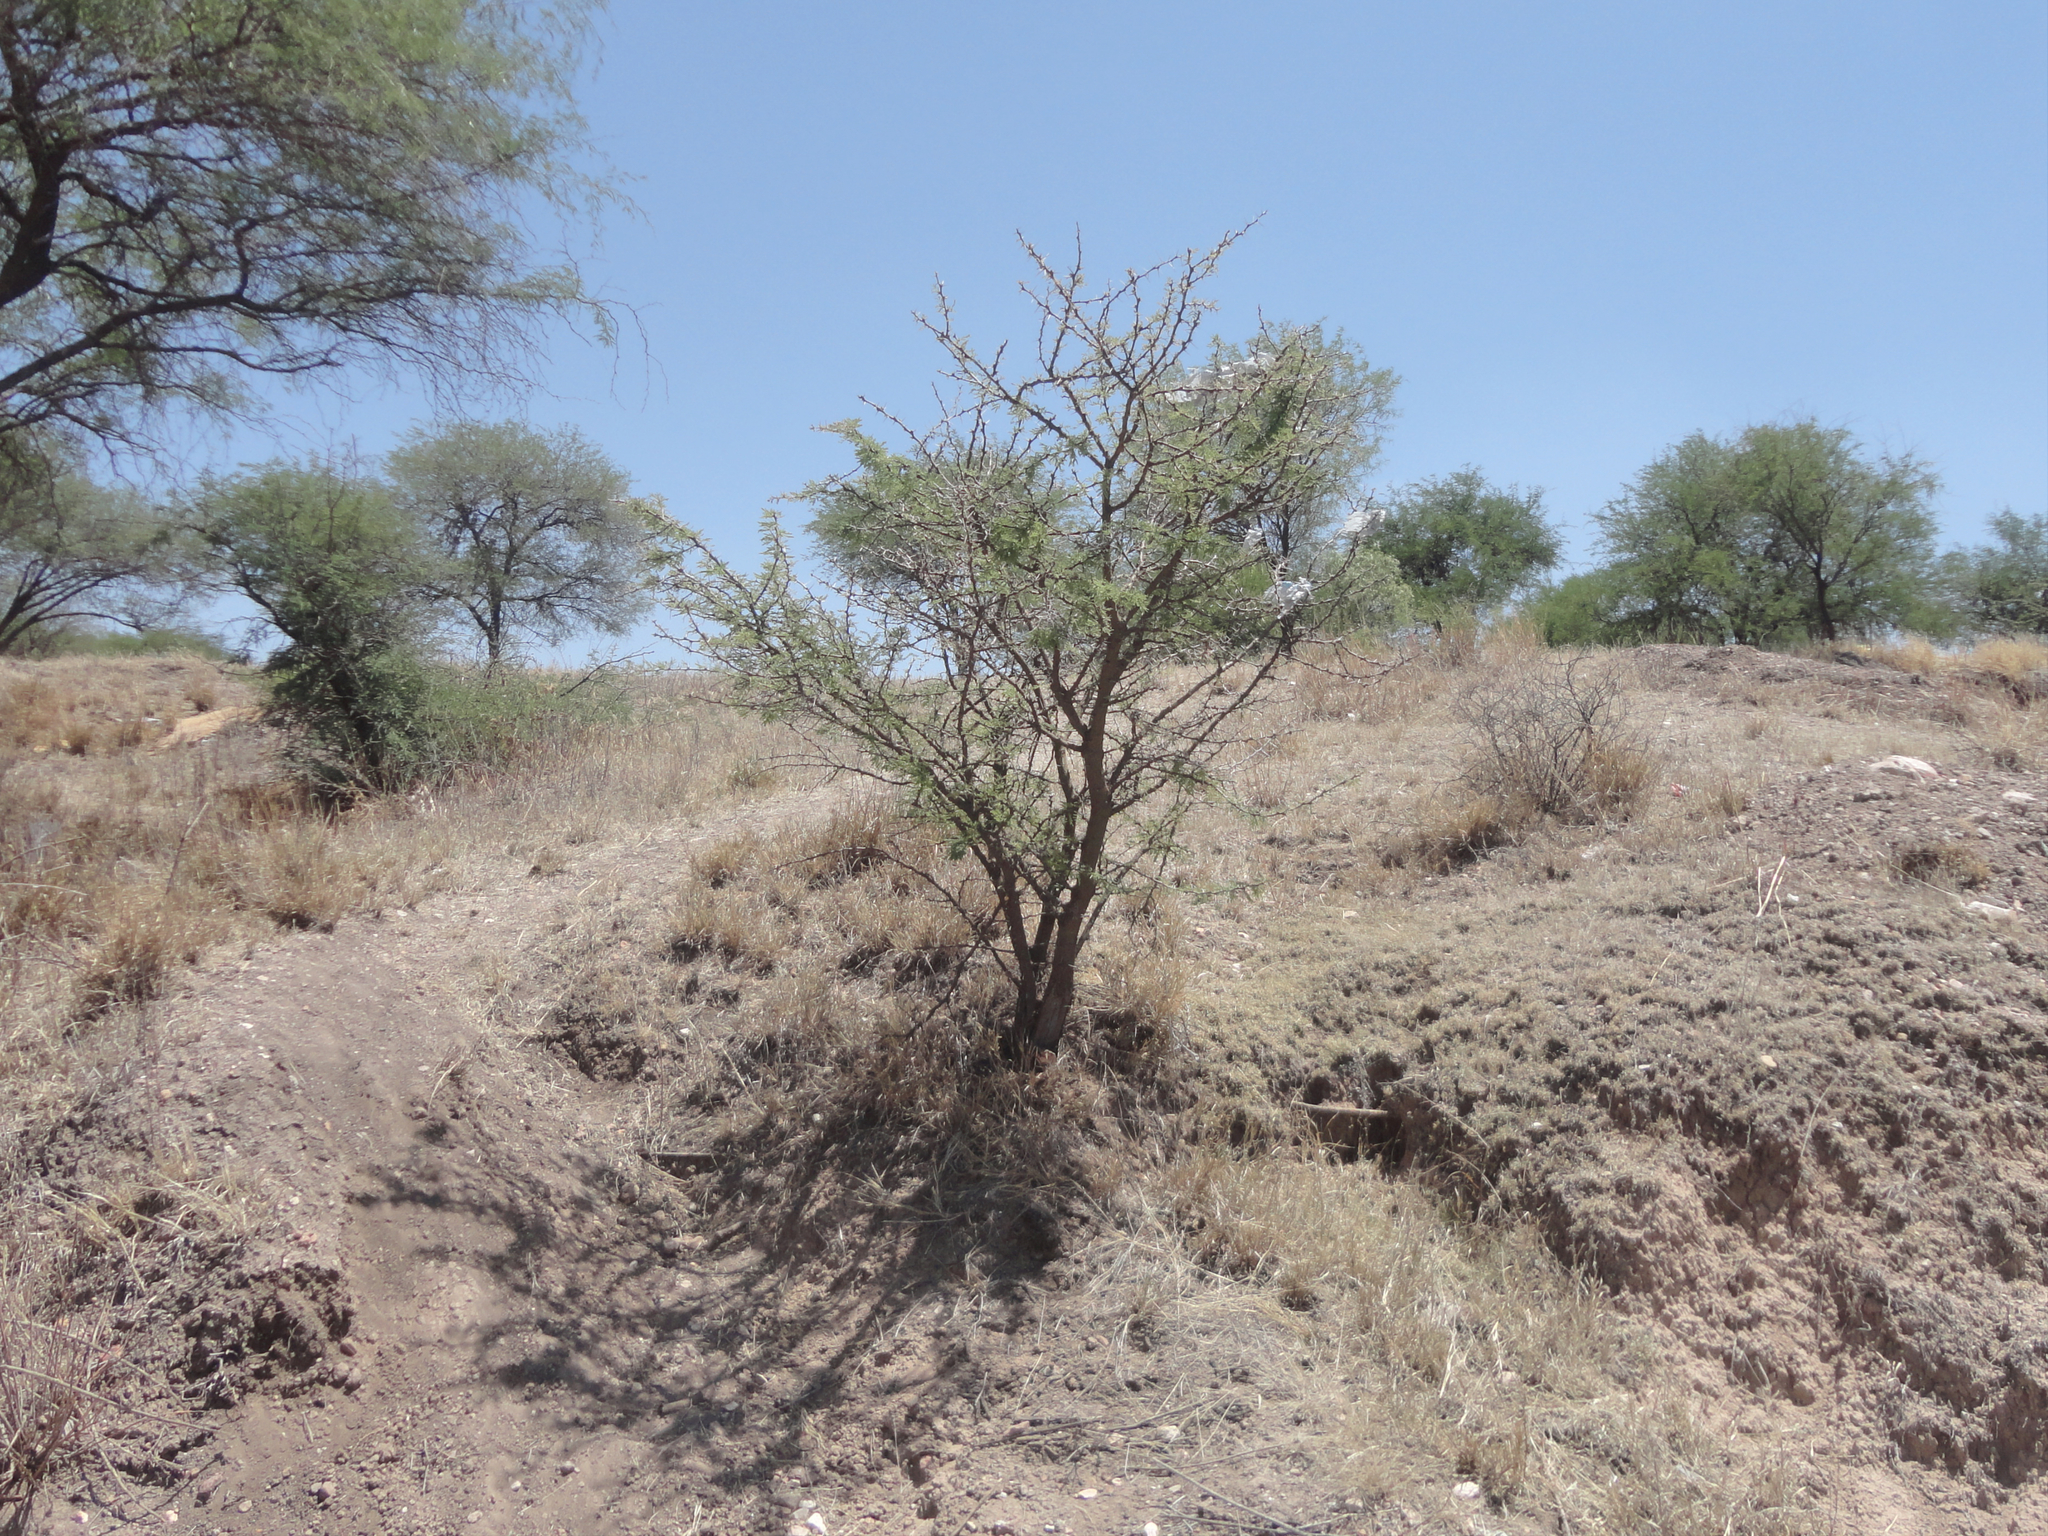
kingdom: Plantae
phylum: Tracheophyta
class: Magnoliopsida
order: Fabales
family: Fabaceae
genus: Vachellia
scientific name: Vachellia farnesiana
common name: Sweet acacia
